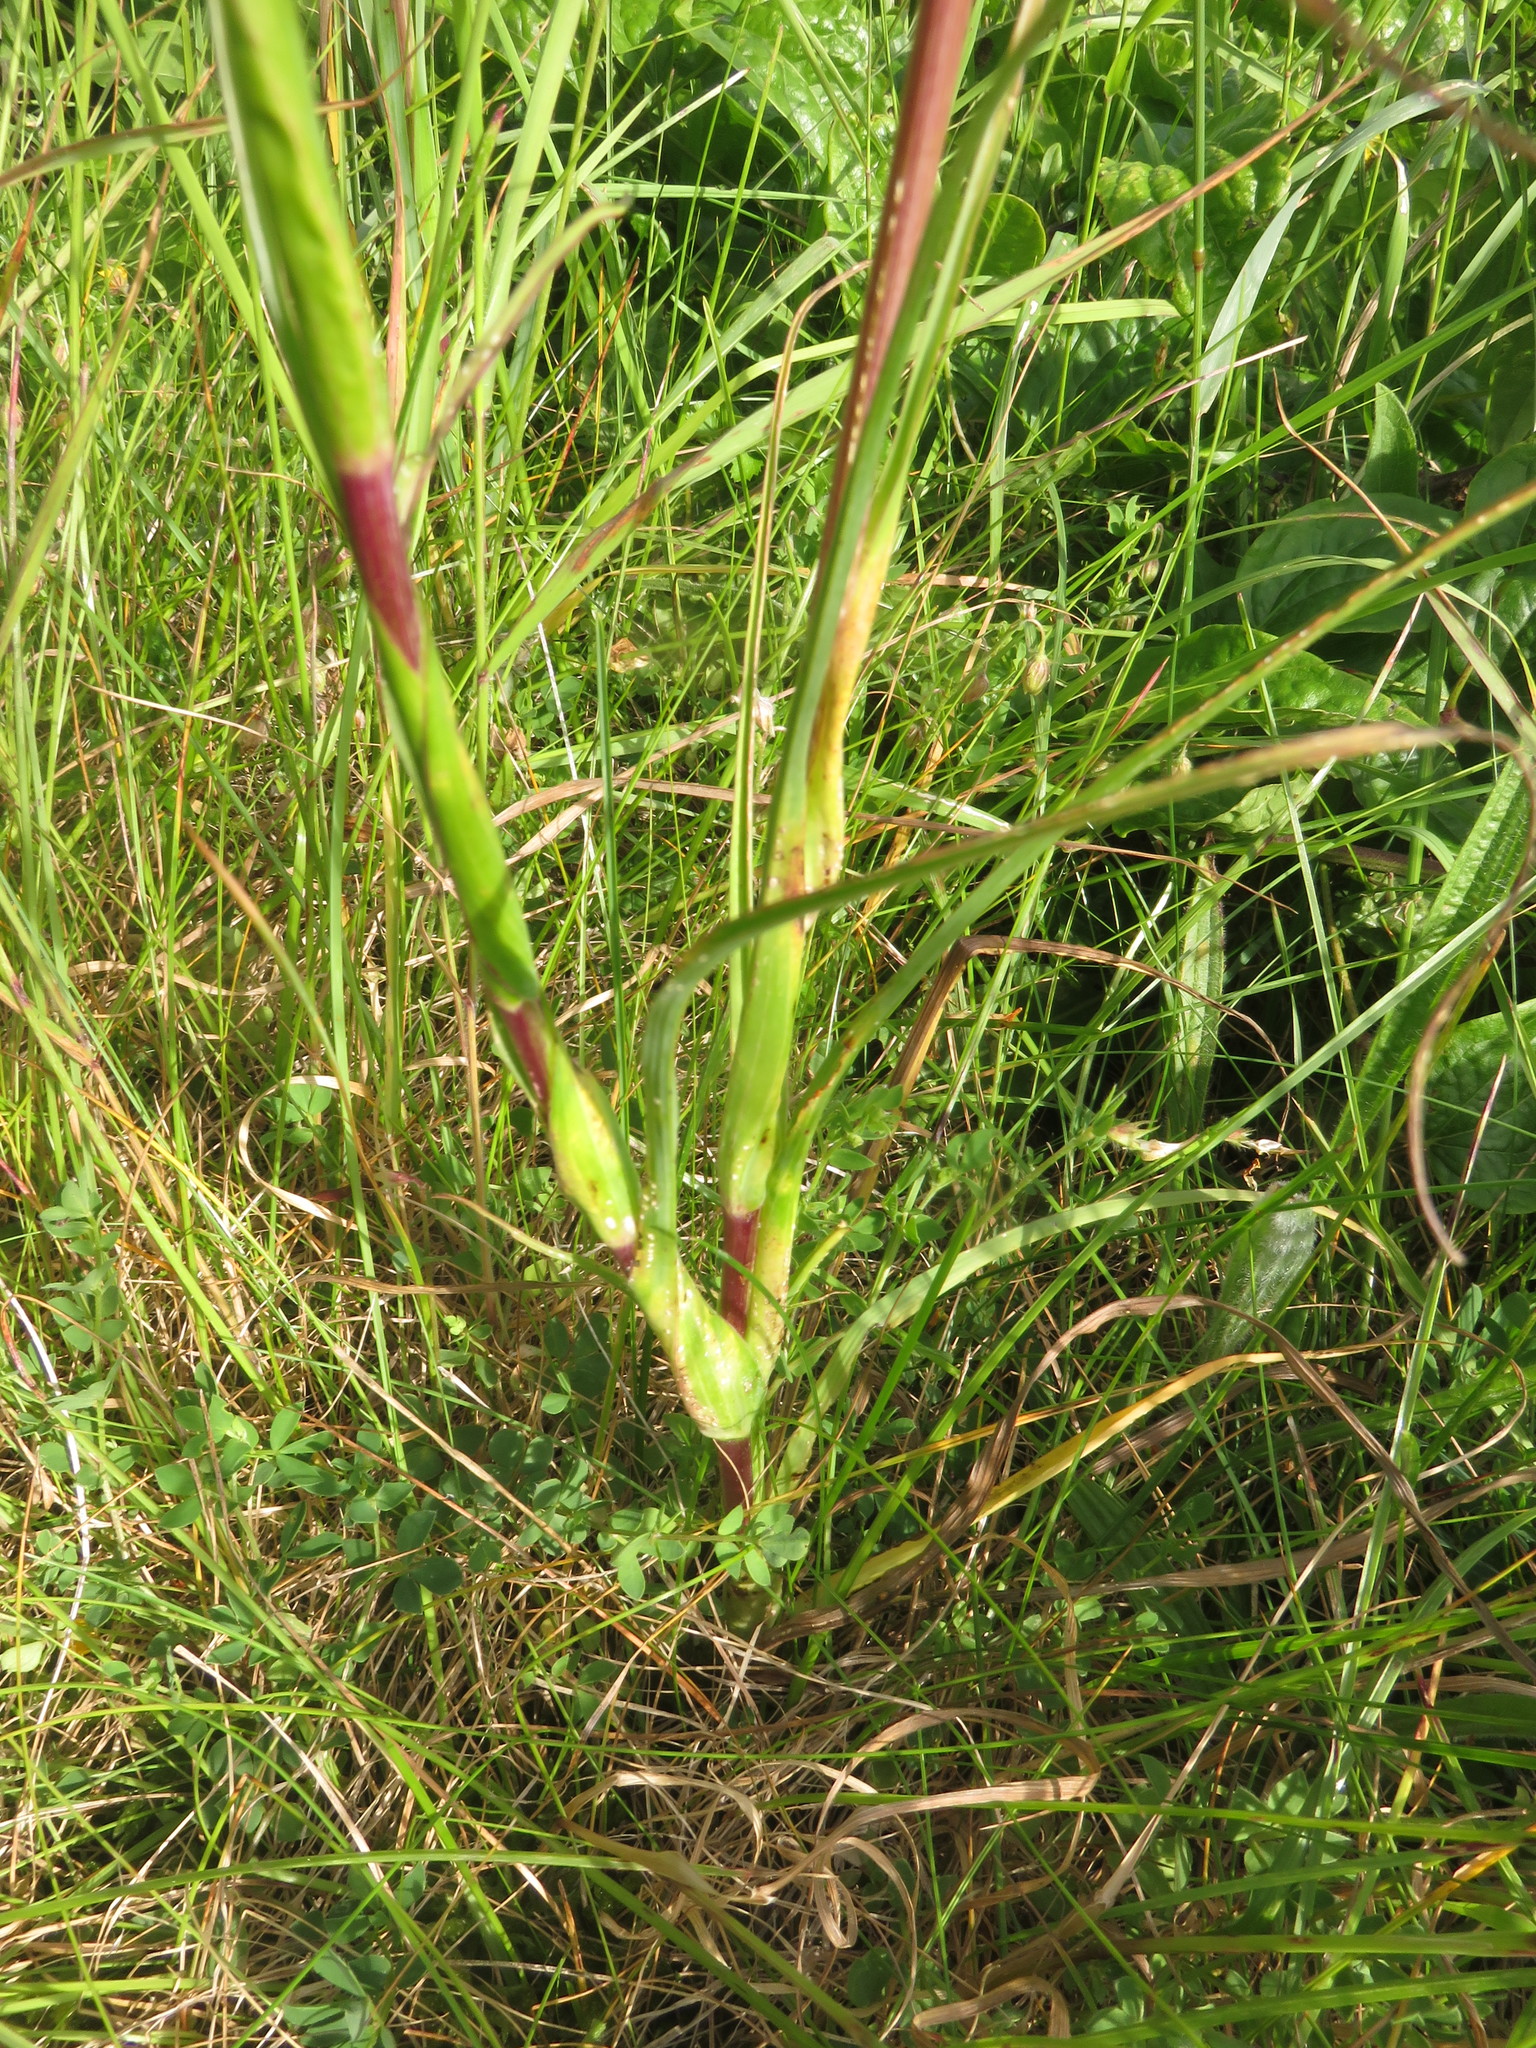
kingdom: Plantae
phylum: Tracheophyta
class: Magnoliopsida
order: Asterales
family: Asteraceae
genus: Tragopogon
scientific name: Tragopogon pratensis
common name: Goat's-beard
